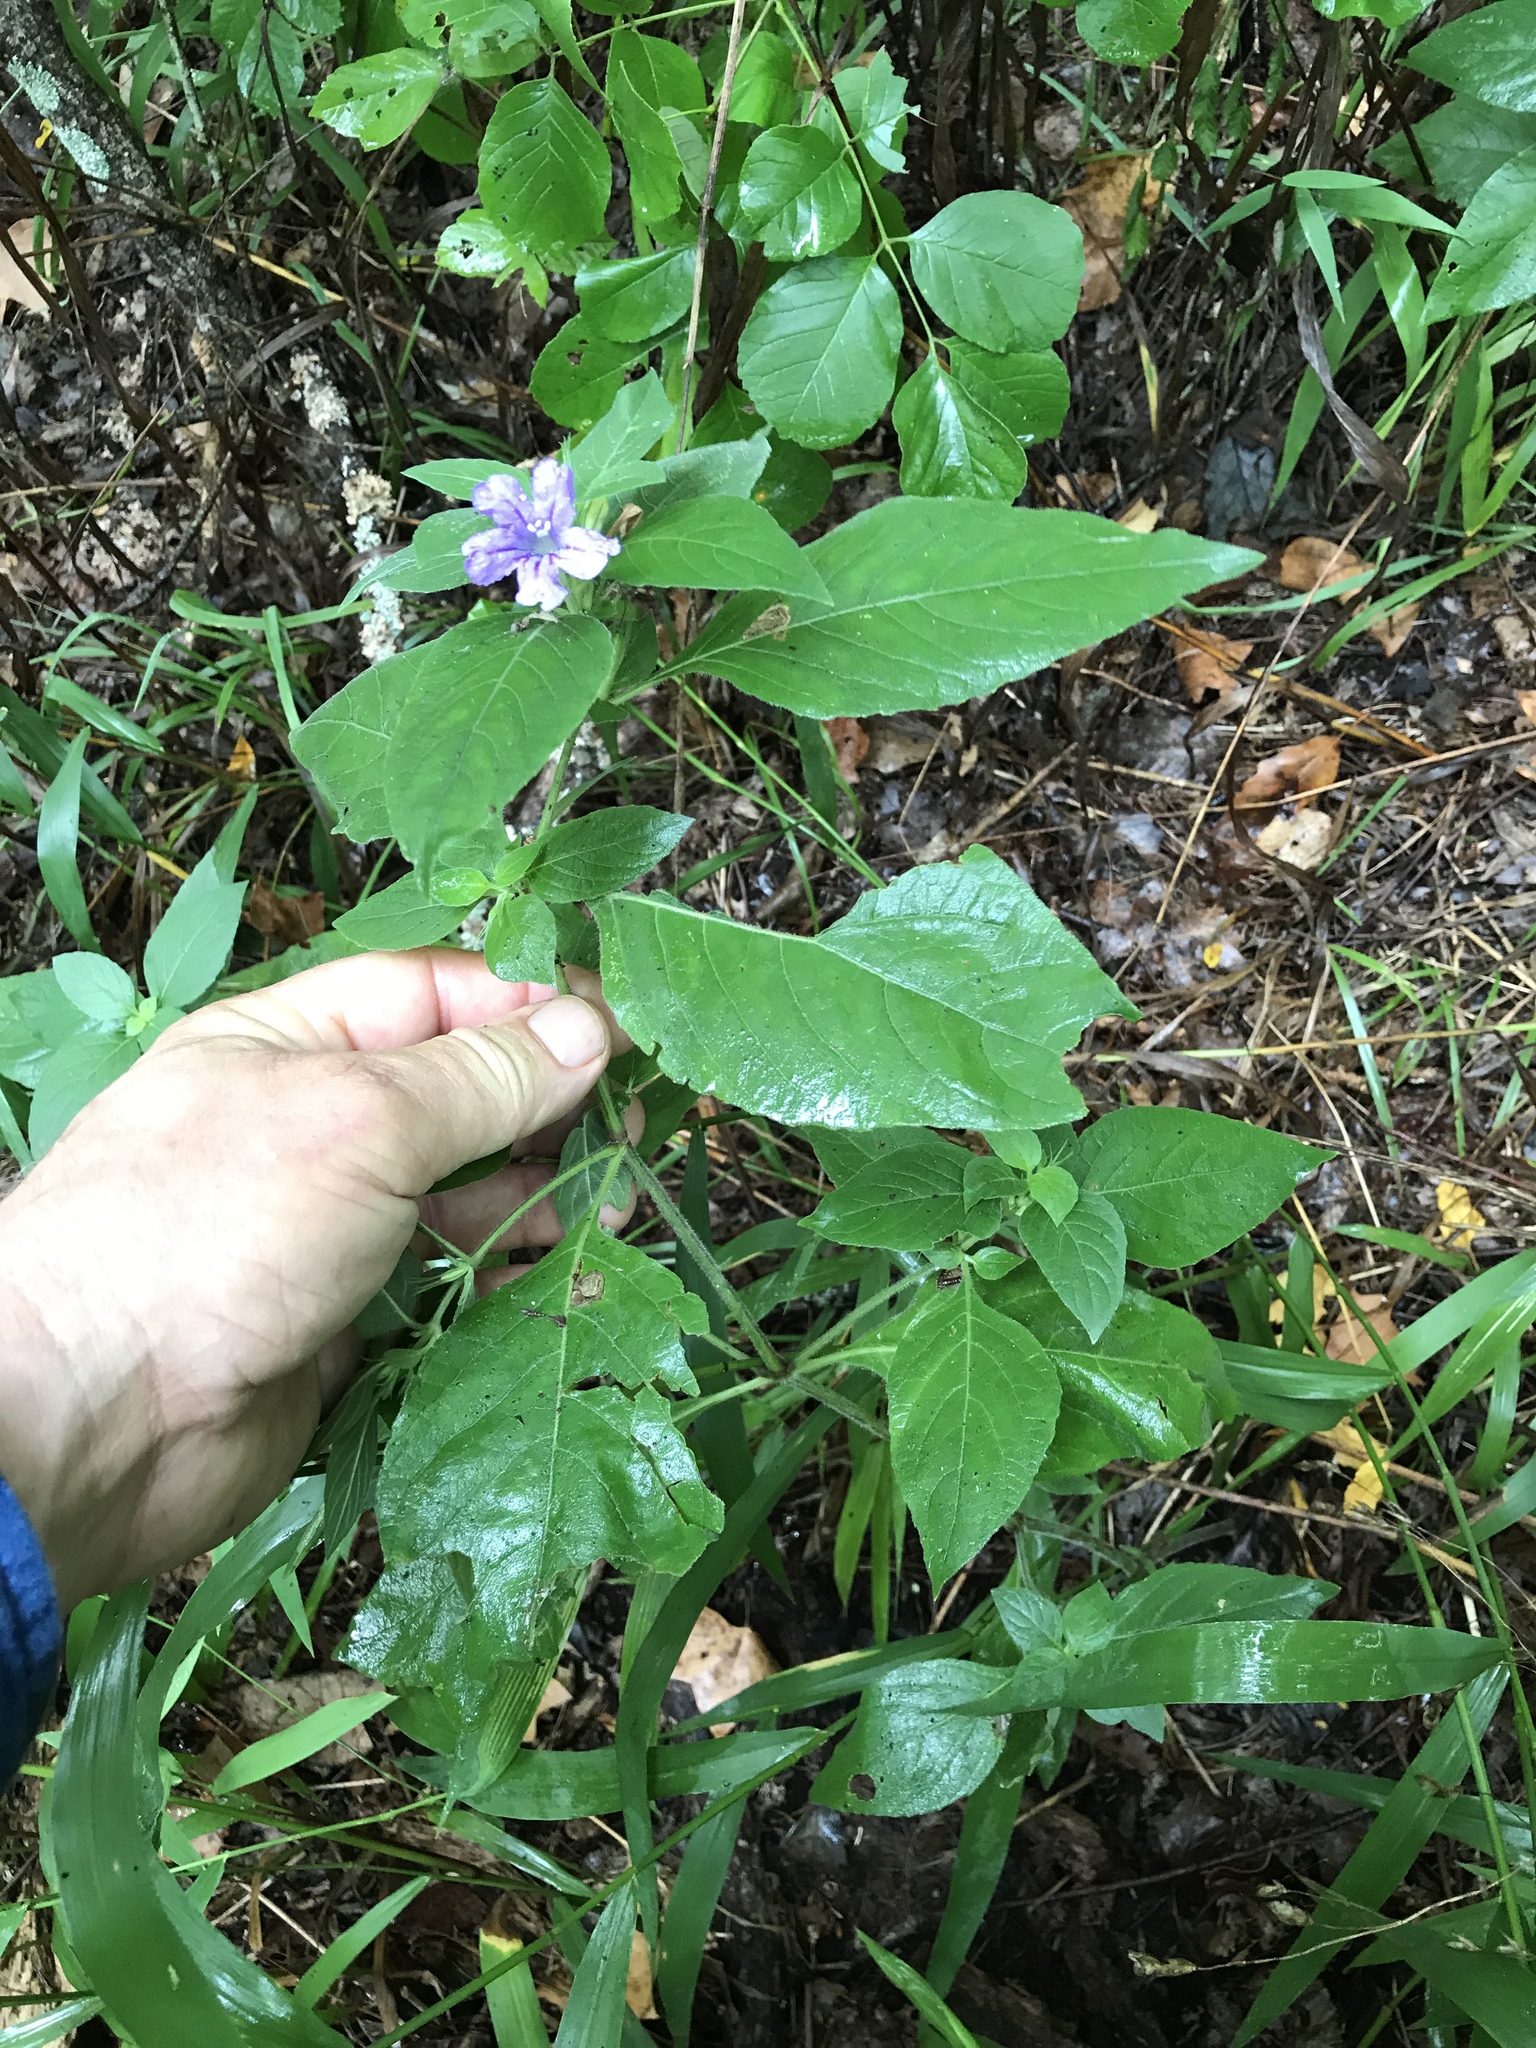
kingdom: Plantae
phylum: Tracheophyta
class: Magnoliopsida
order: Lamiales
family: Acanthaceae
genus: Ruellia
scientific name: Ruellia drummondiana
